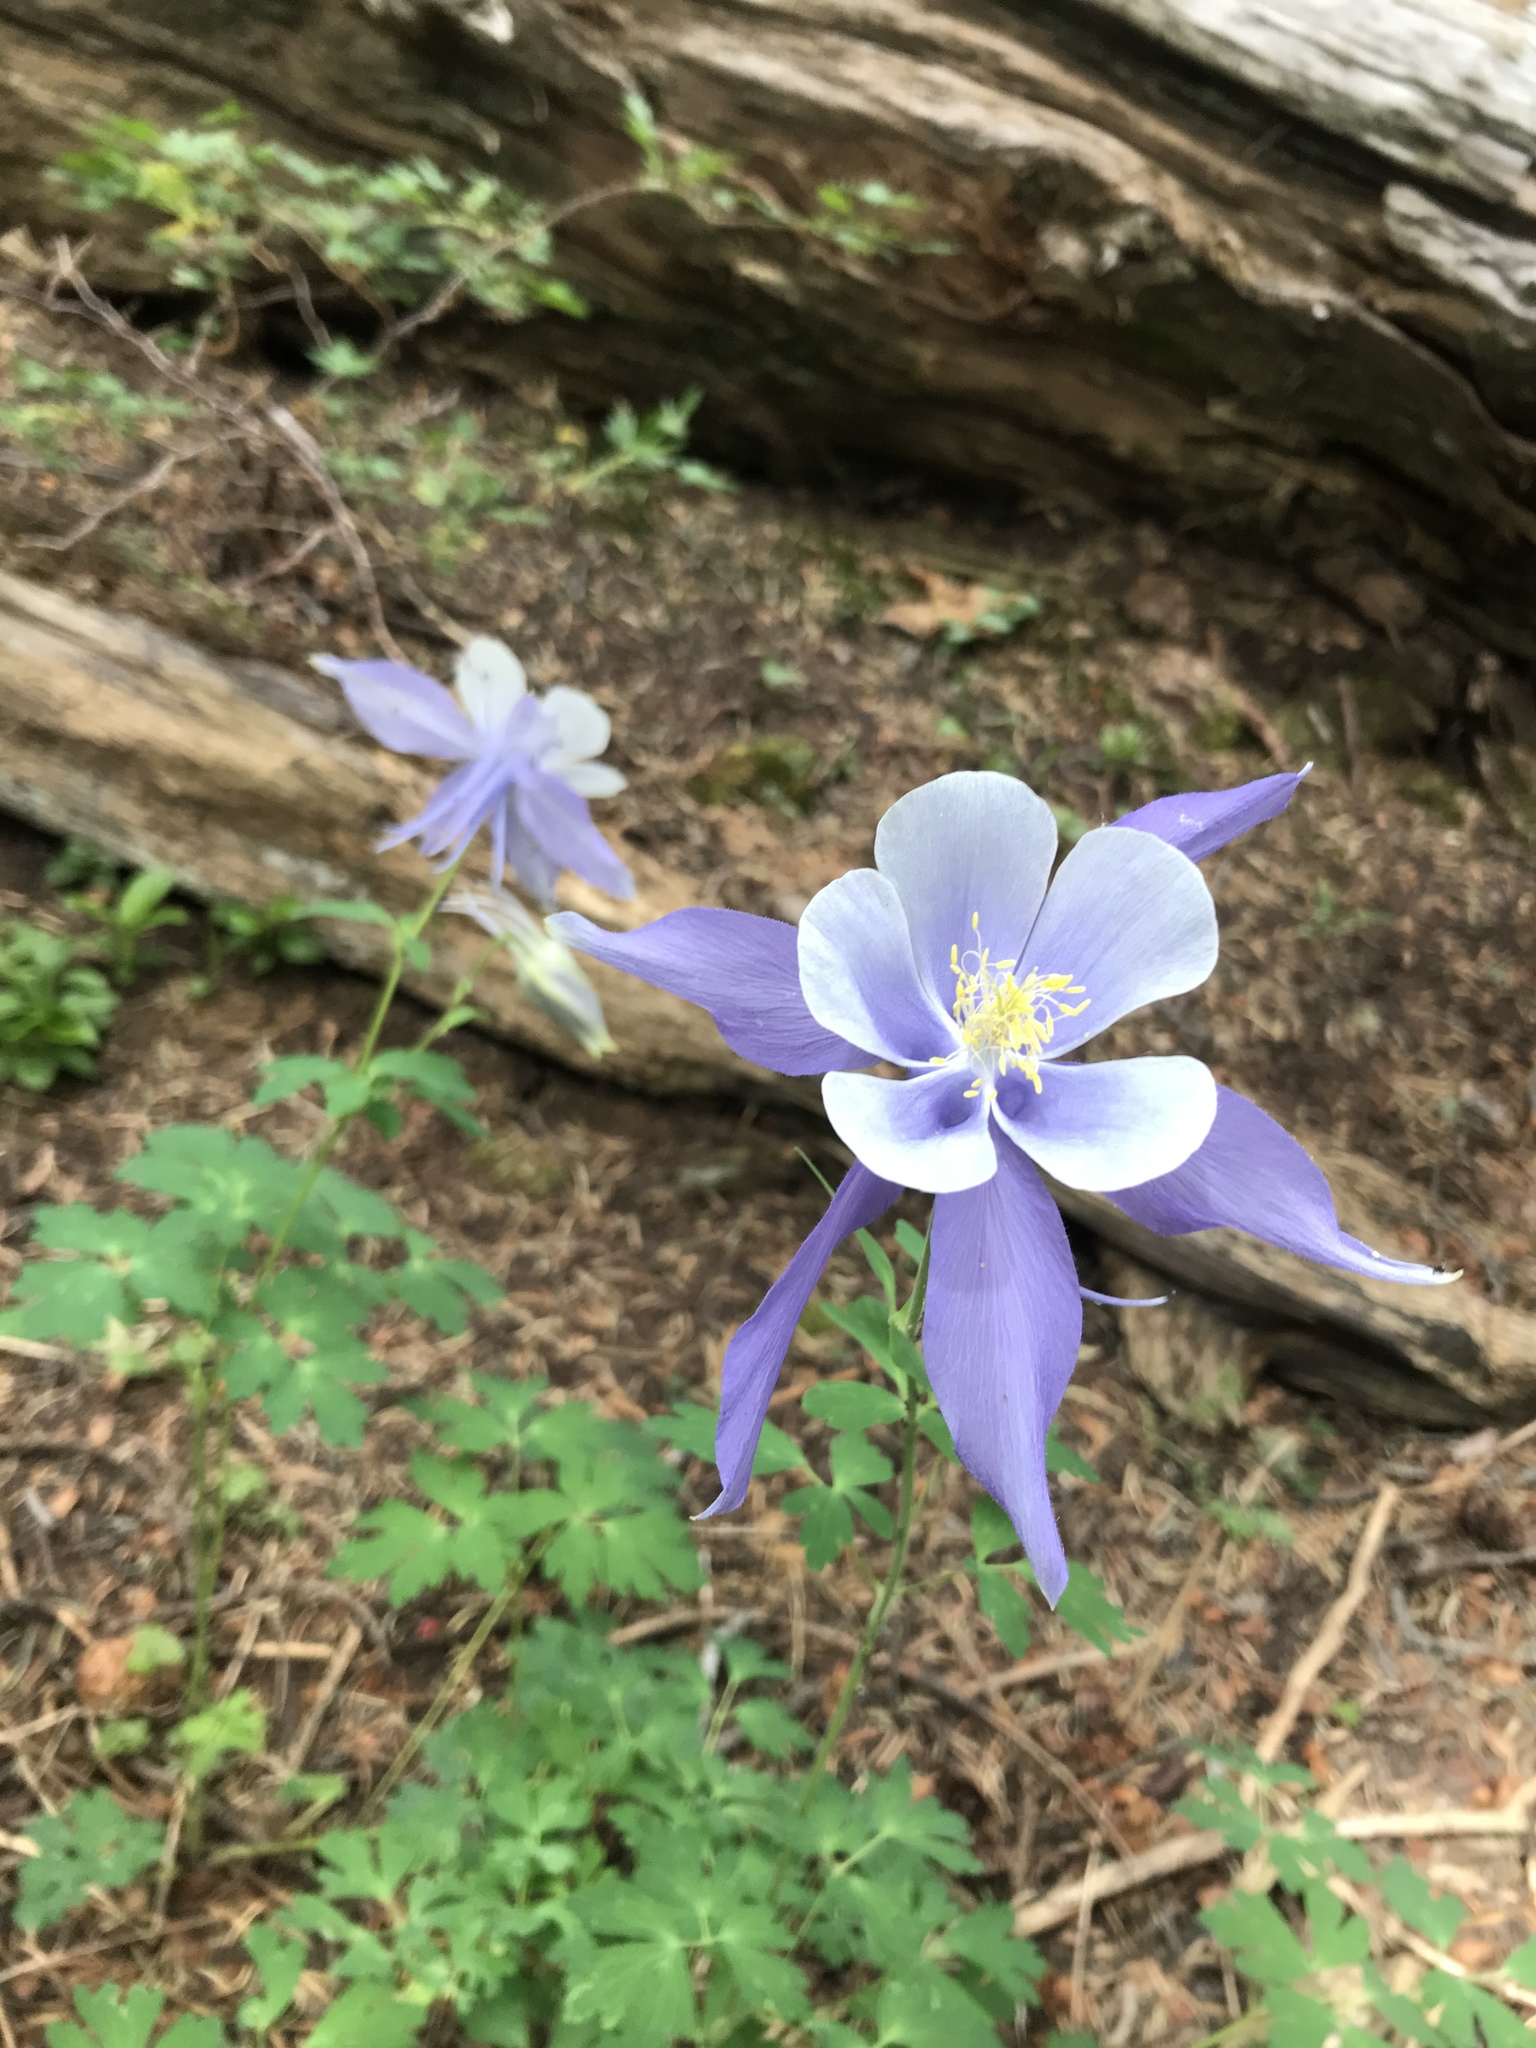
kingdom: Plantae
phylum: Tracheophyta
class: Magnoliopsida
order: Ranunculales
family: Ranunculaceae
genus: Aquilegia
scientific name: Aquilegia coerulea
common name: Rocky mountain columbine
